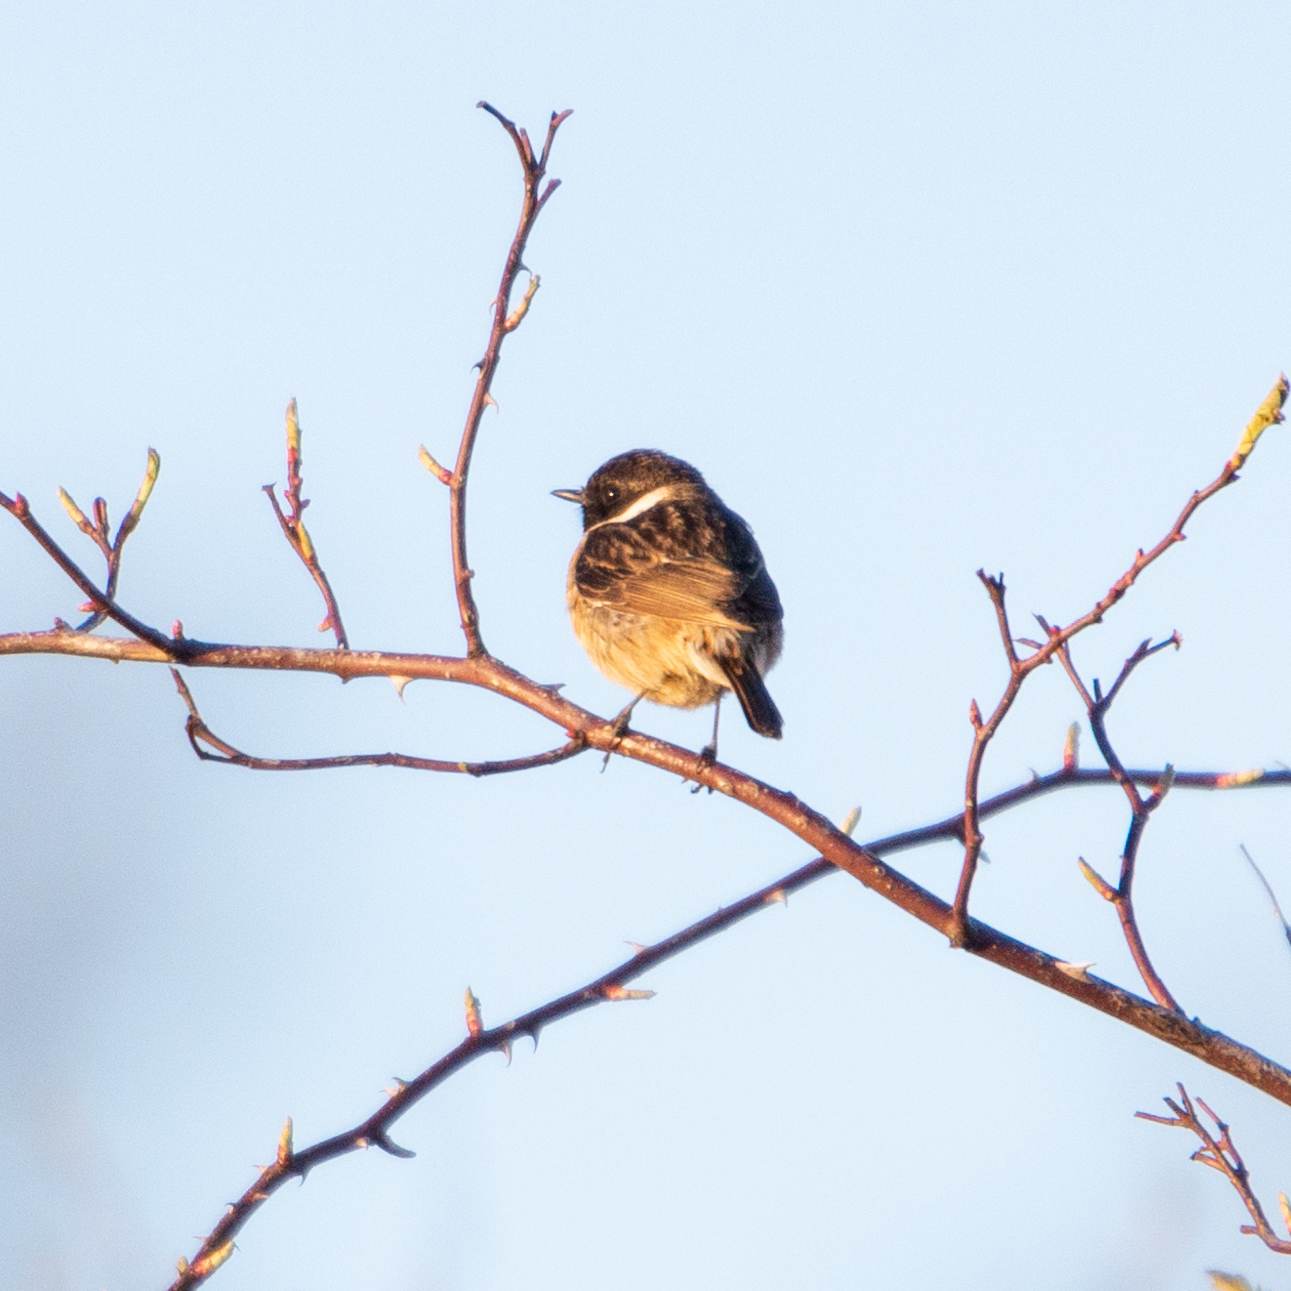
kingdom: Animalia
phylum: Chordata
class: Aves
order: Passeriformes
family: Muscicapidae
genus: Saxicola
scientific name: Saxicola rubicola
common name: European stonechat
